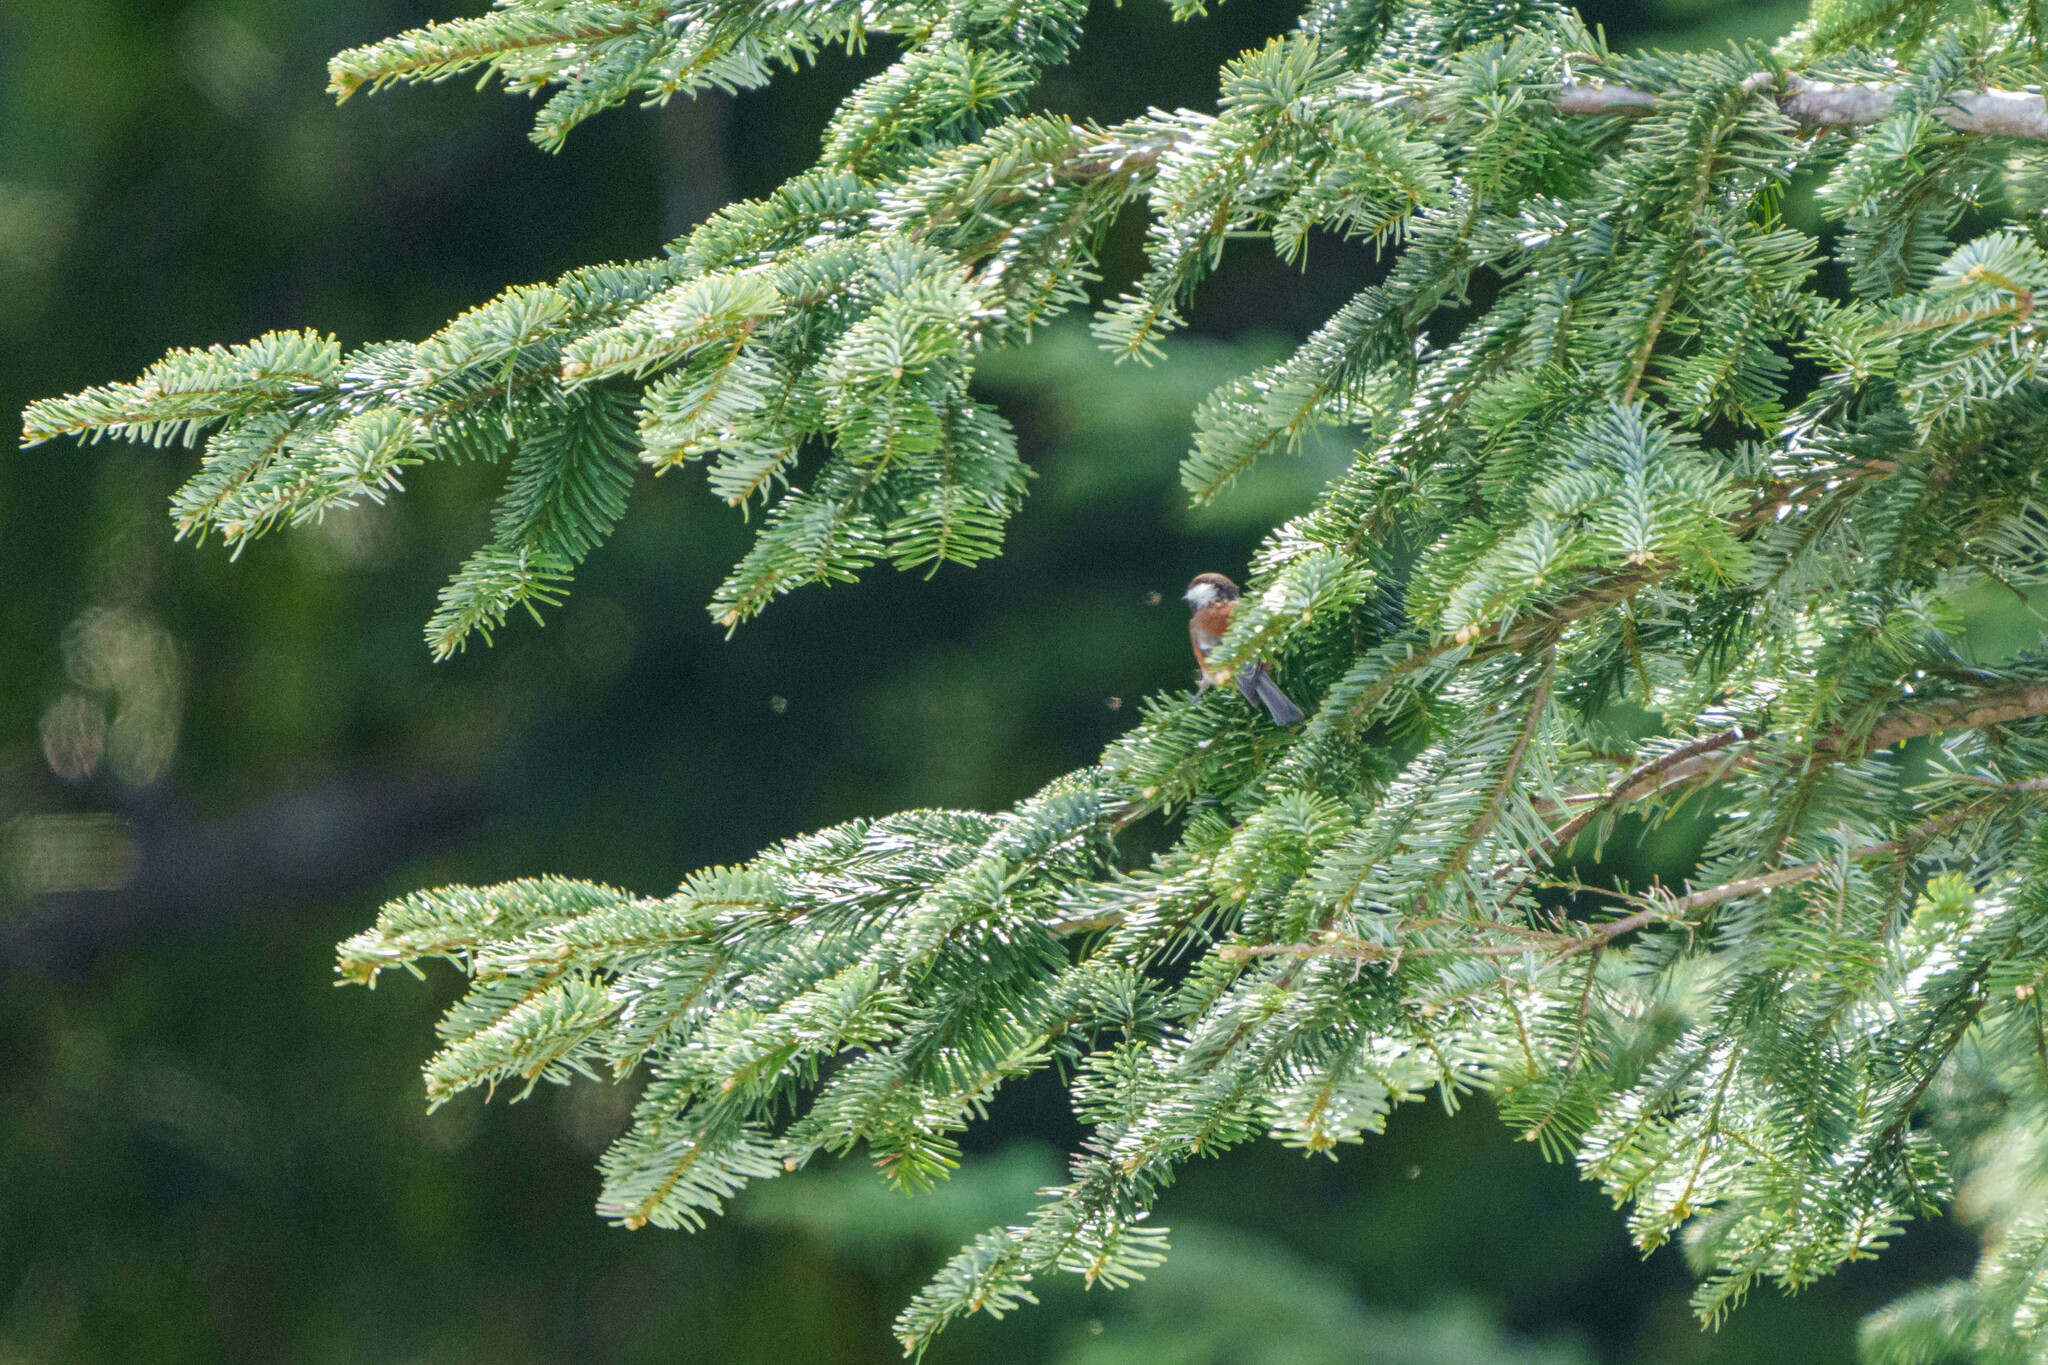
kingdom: Animalia
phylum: Chordata
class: Aves
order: Passeriformes
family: Paridae
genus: Poecile
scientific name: Poecile rufescens
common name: Chestnut-backed chickadee
